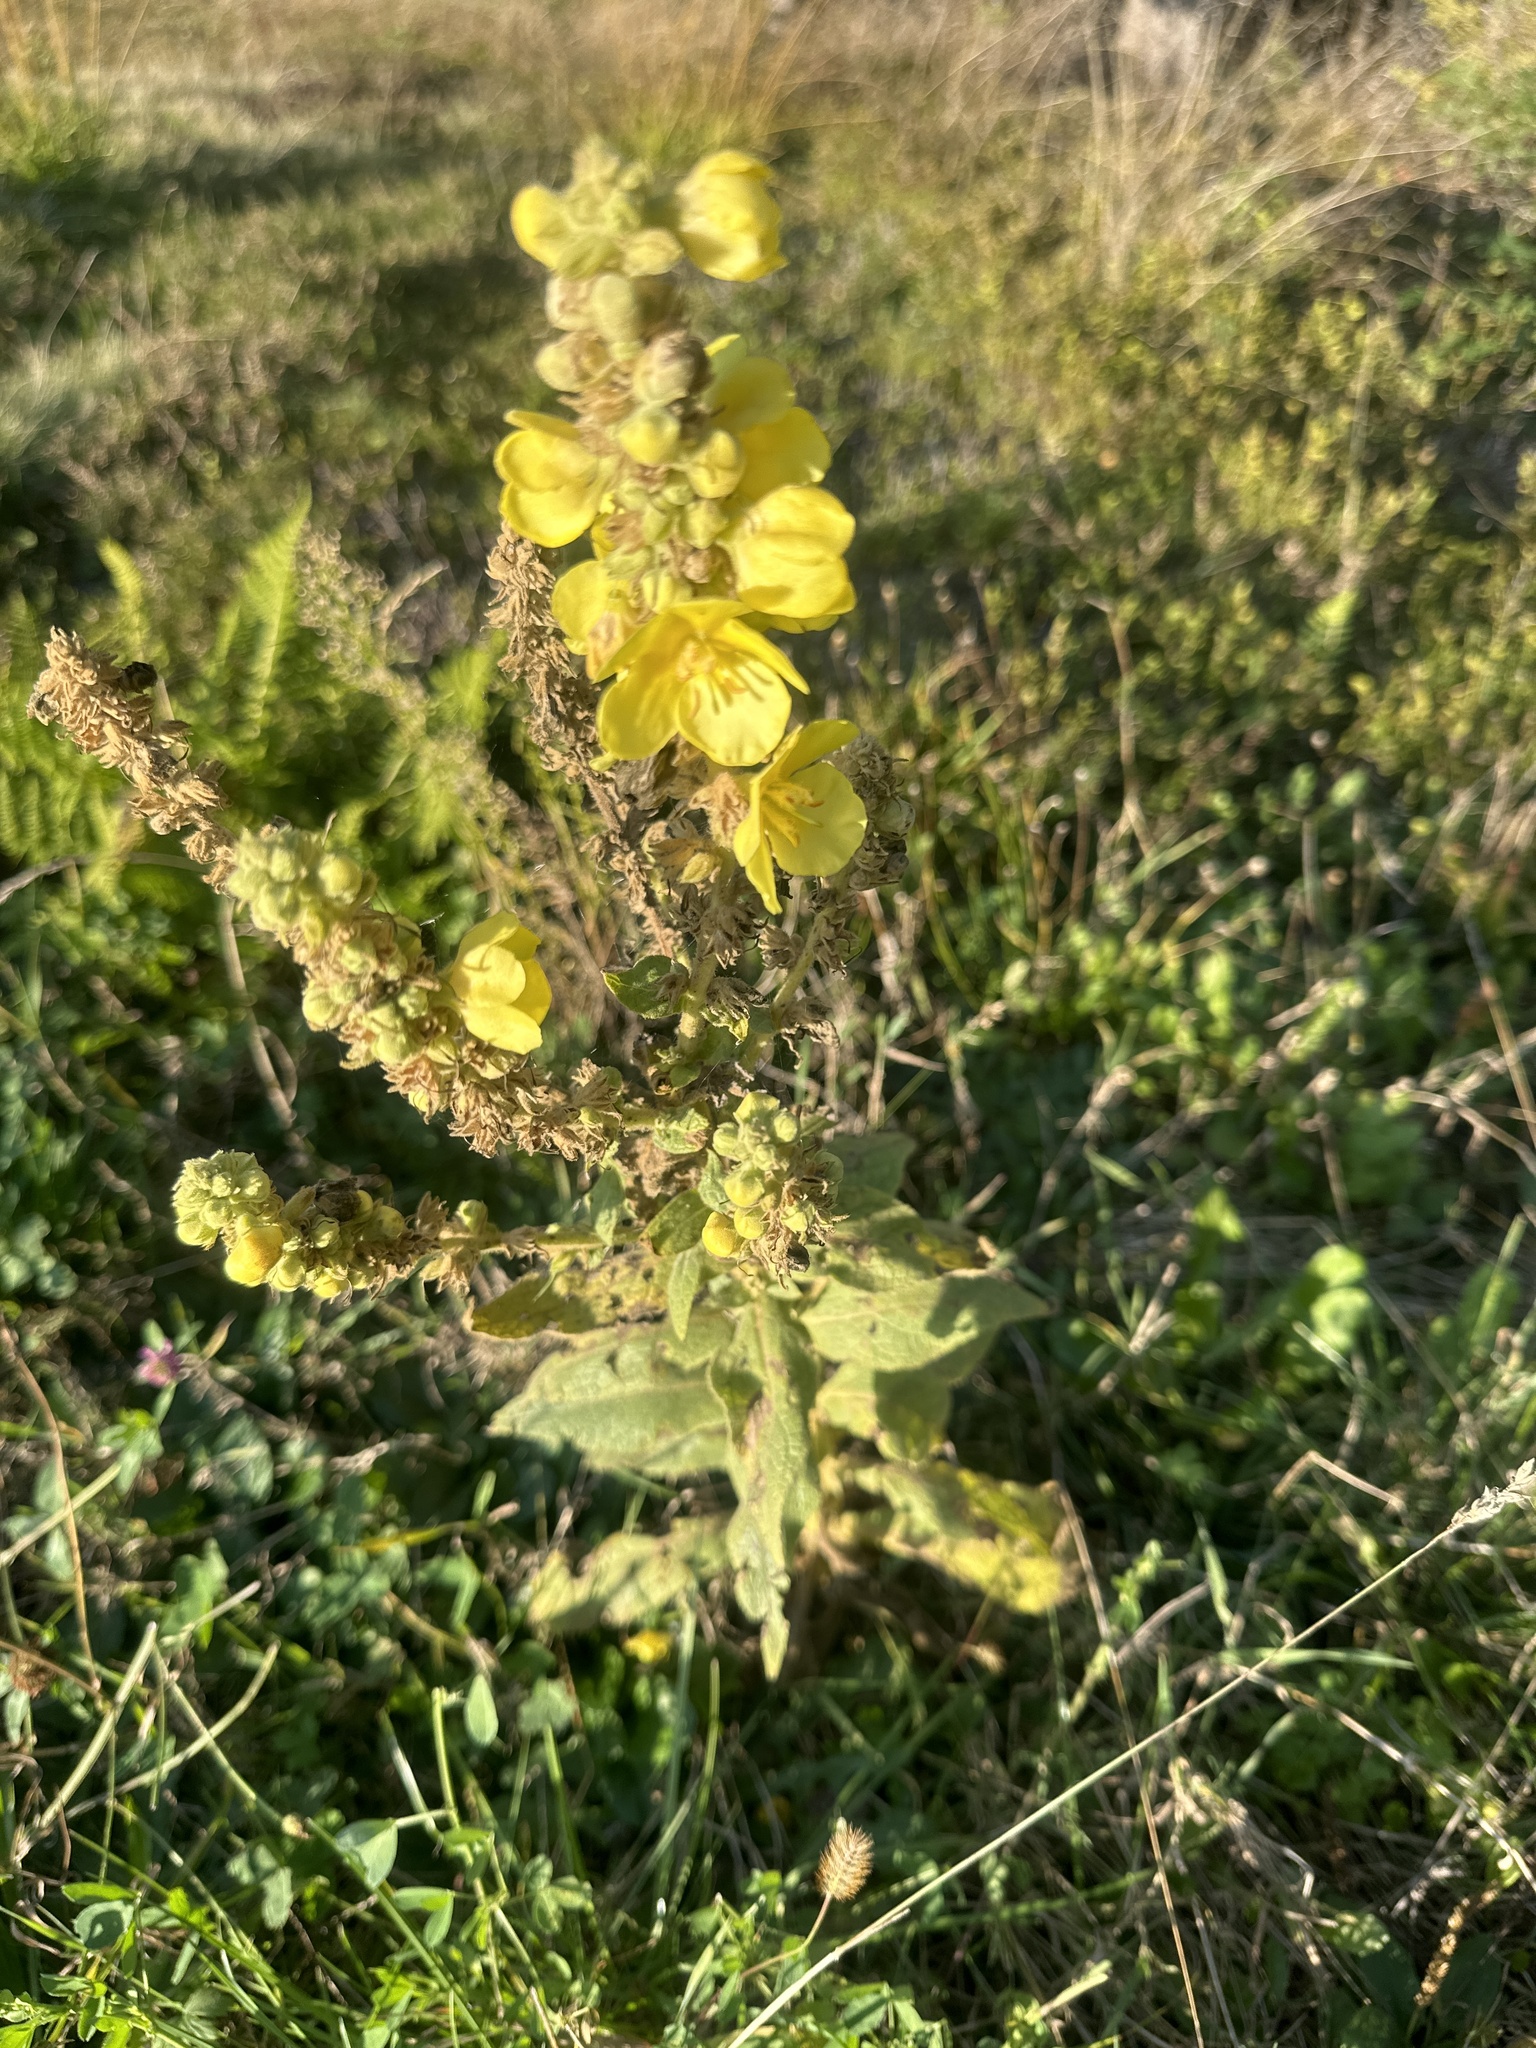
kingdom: Plantae
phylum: Tracheophyta
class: Magnoliopsida
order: Lamiales
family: Scrophulariaceae
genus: Verbascum
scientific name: Verbascum densiflorum
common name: Dense-flowered mullein
